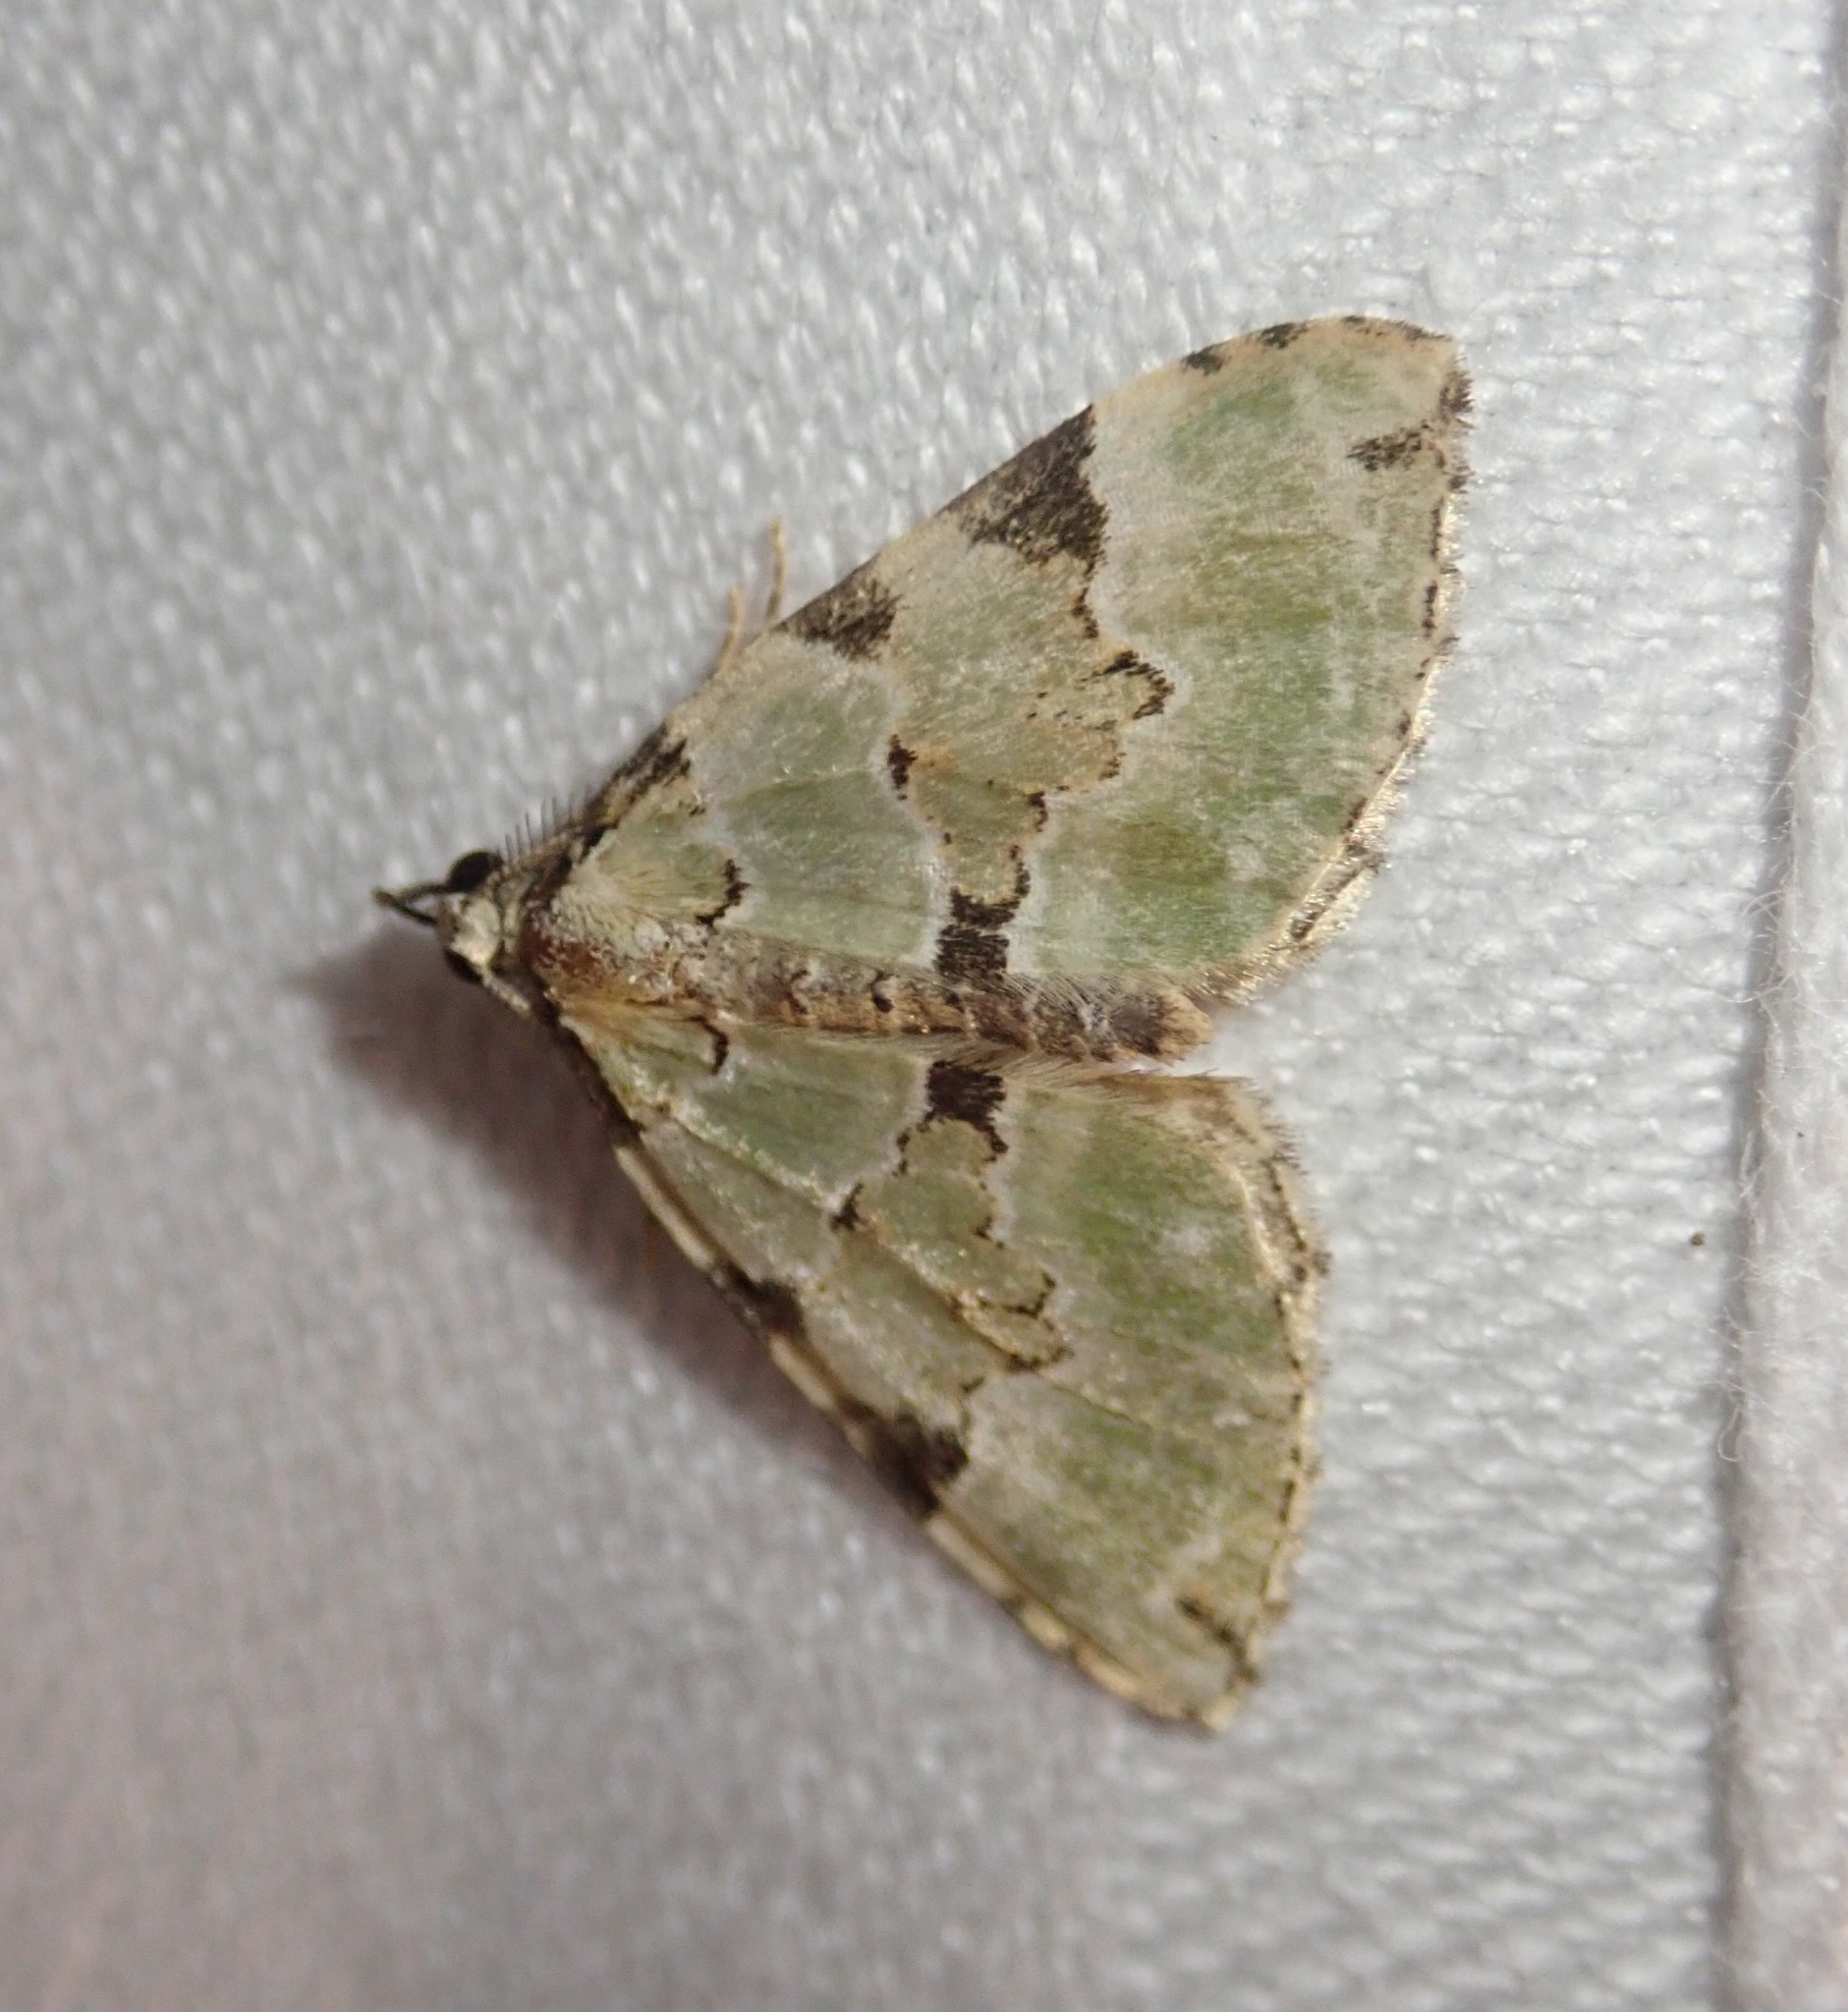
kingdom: Animalia
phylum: Arthropoda
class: Insecta
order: Lepidoptera
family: Geometridae
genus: Colostygia
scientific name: Colostygia pectinataria
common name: Green carpet
